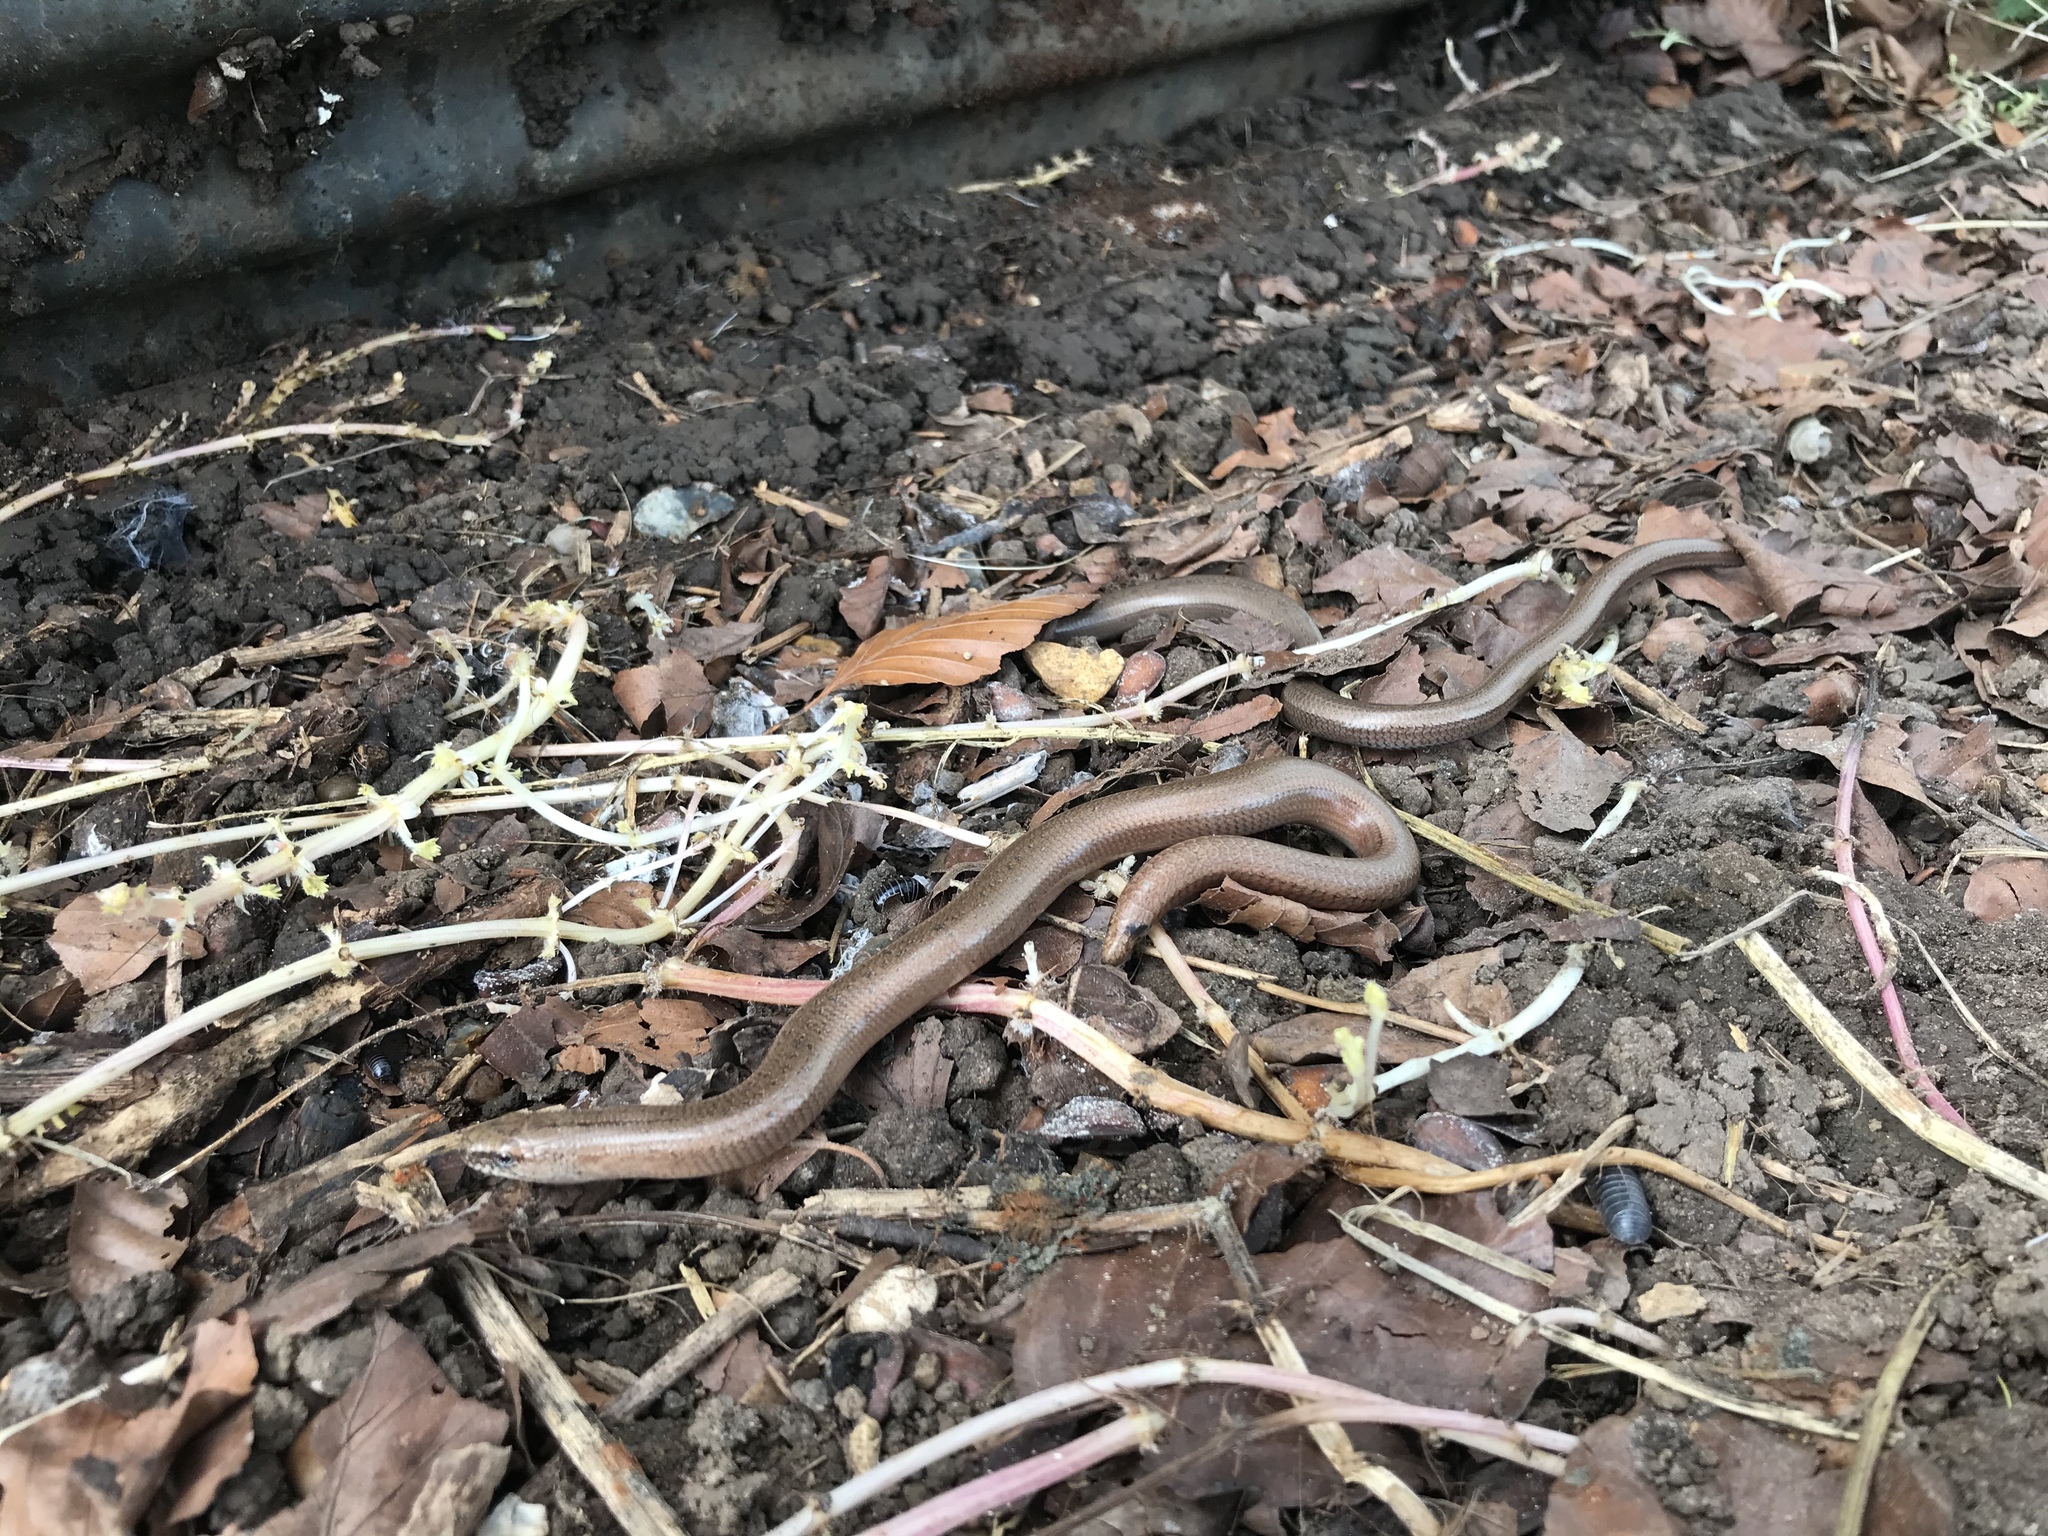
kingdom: Animalia
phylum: Chordata
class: Squamata
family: Anguidae
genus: Anguis
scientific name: Anguis fragilis
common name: Slow worm
